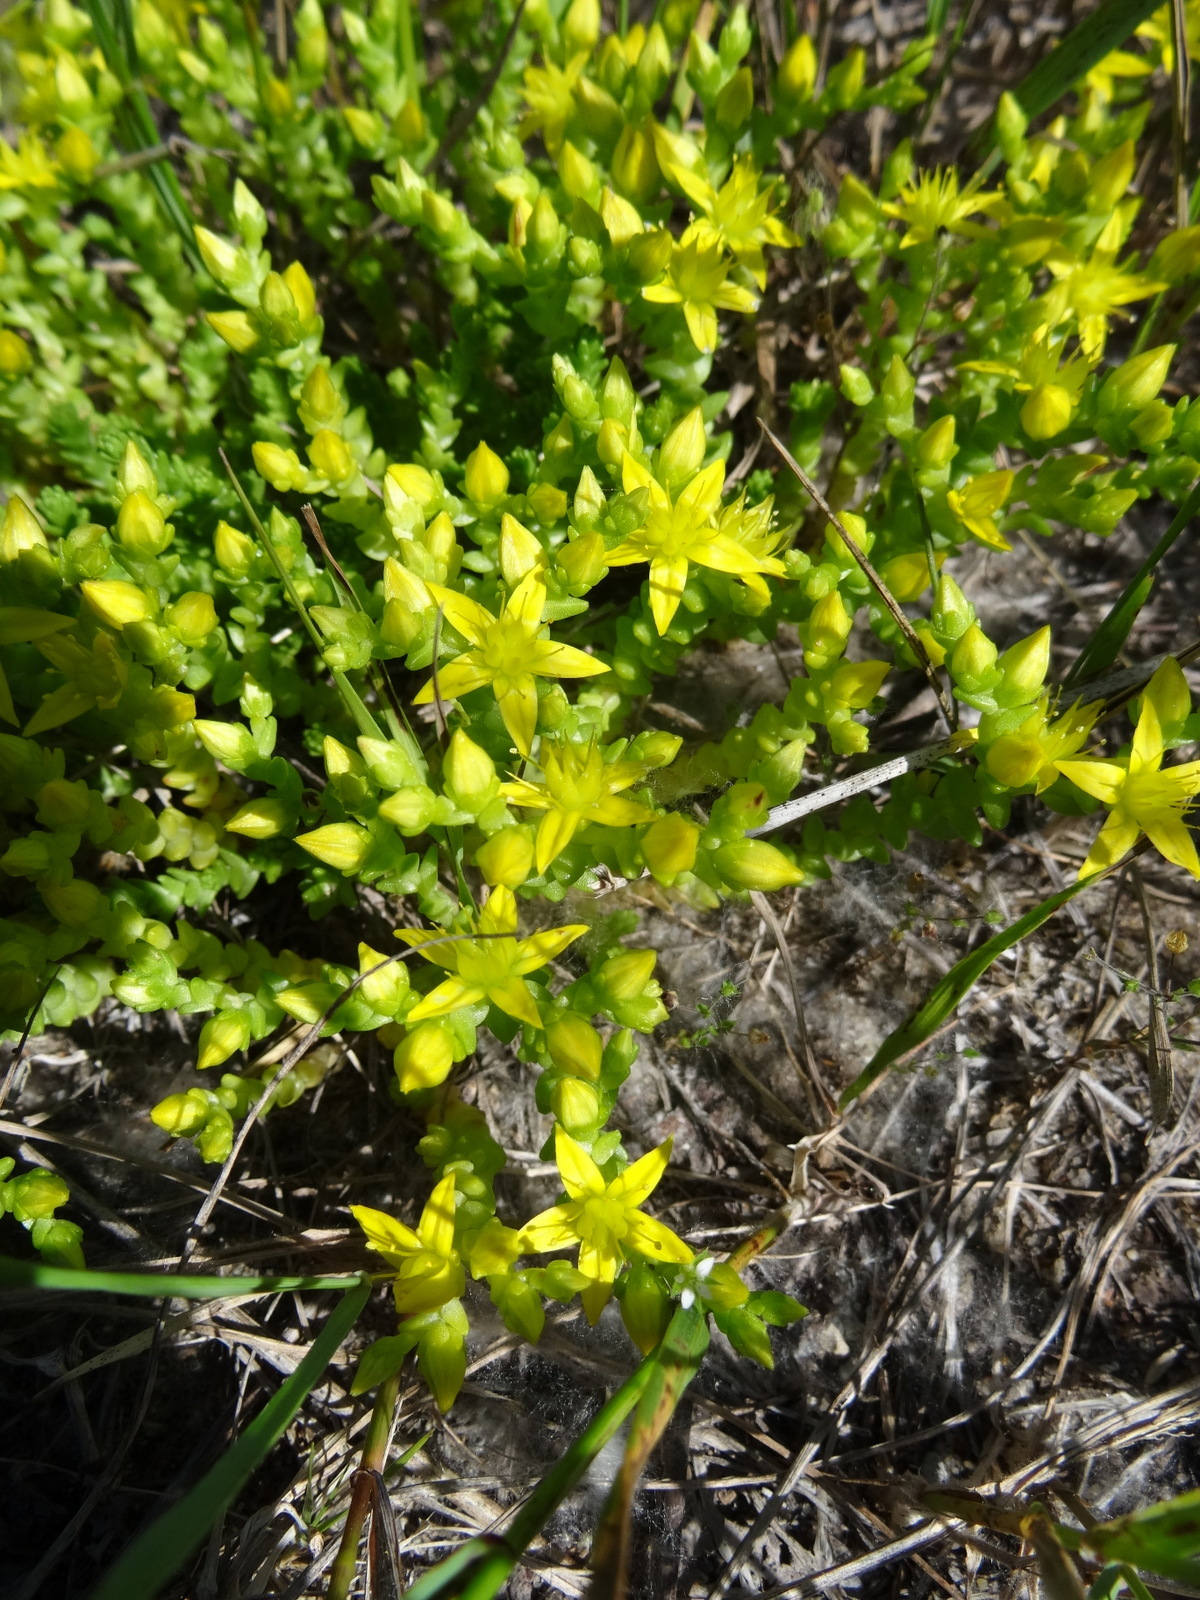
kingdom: Plantae
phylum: Tracheophyta
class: Magnoliopsida
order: Saxifragales
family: Crassulaceae
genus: Sedum
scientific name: Sedum acre
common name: Biting stonecrop
